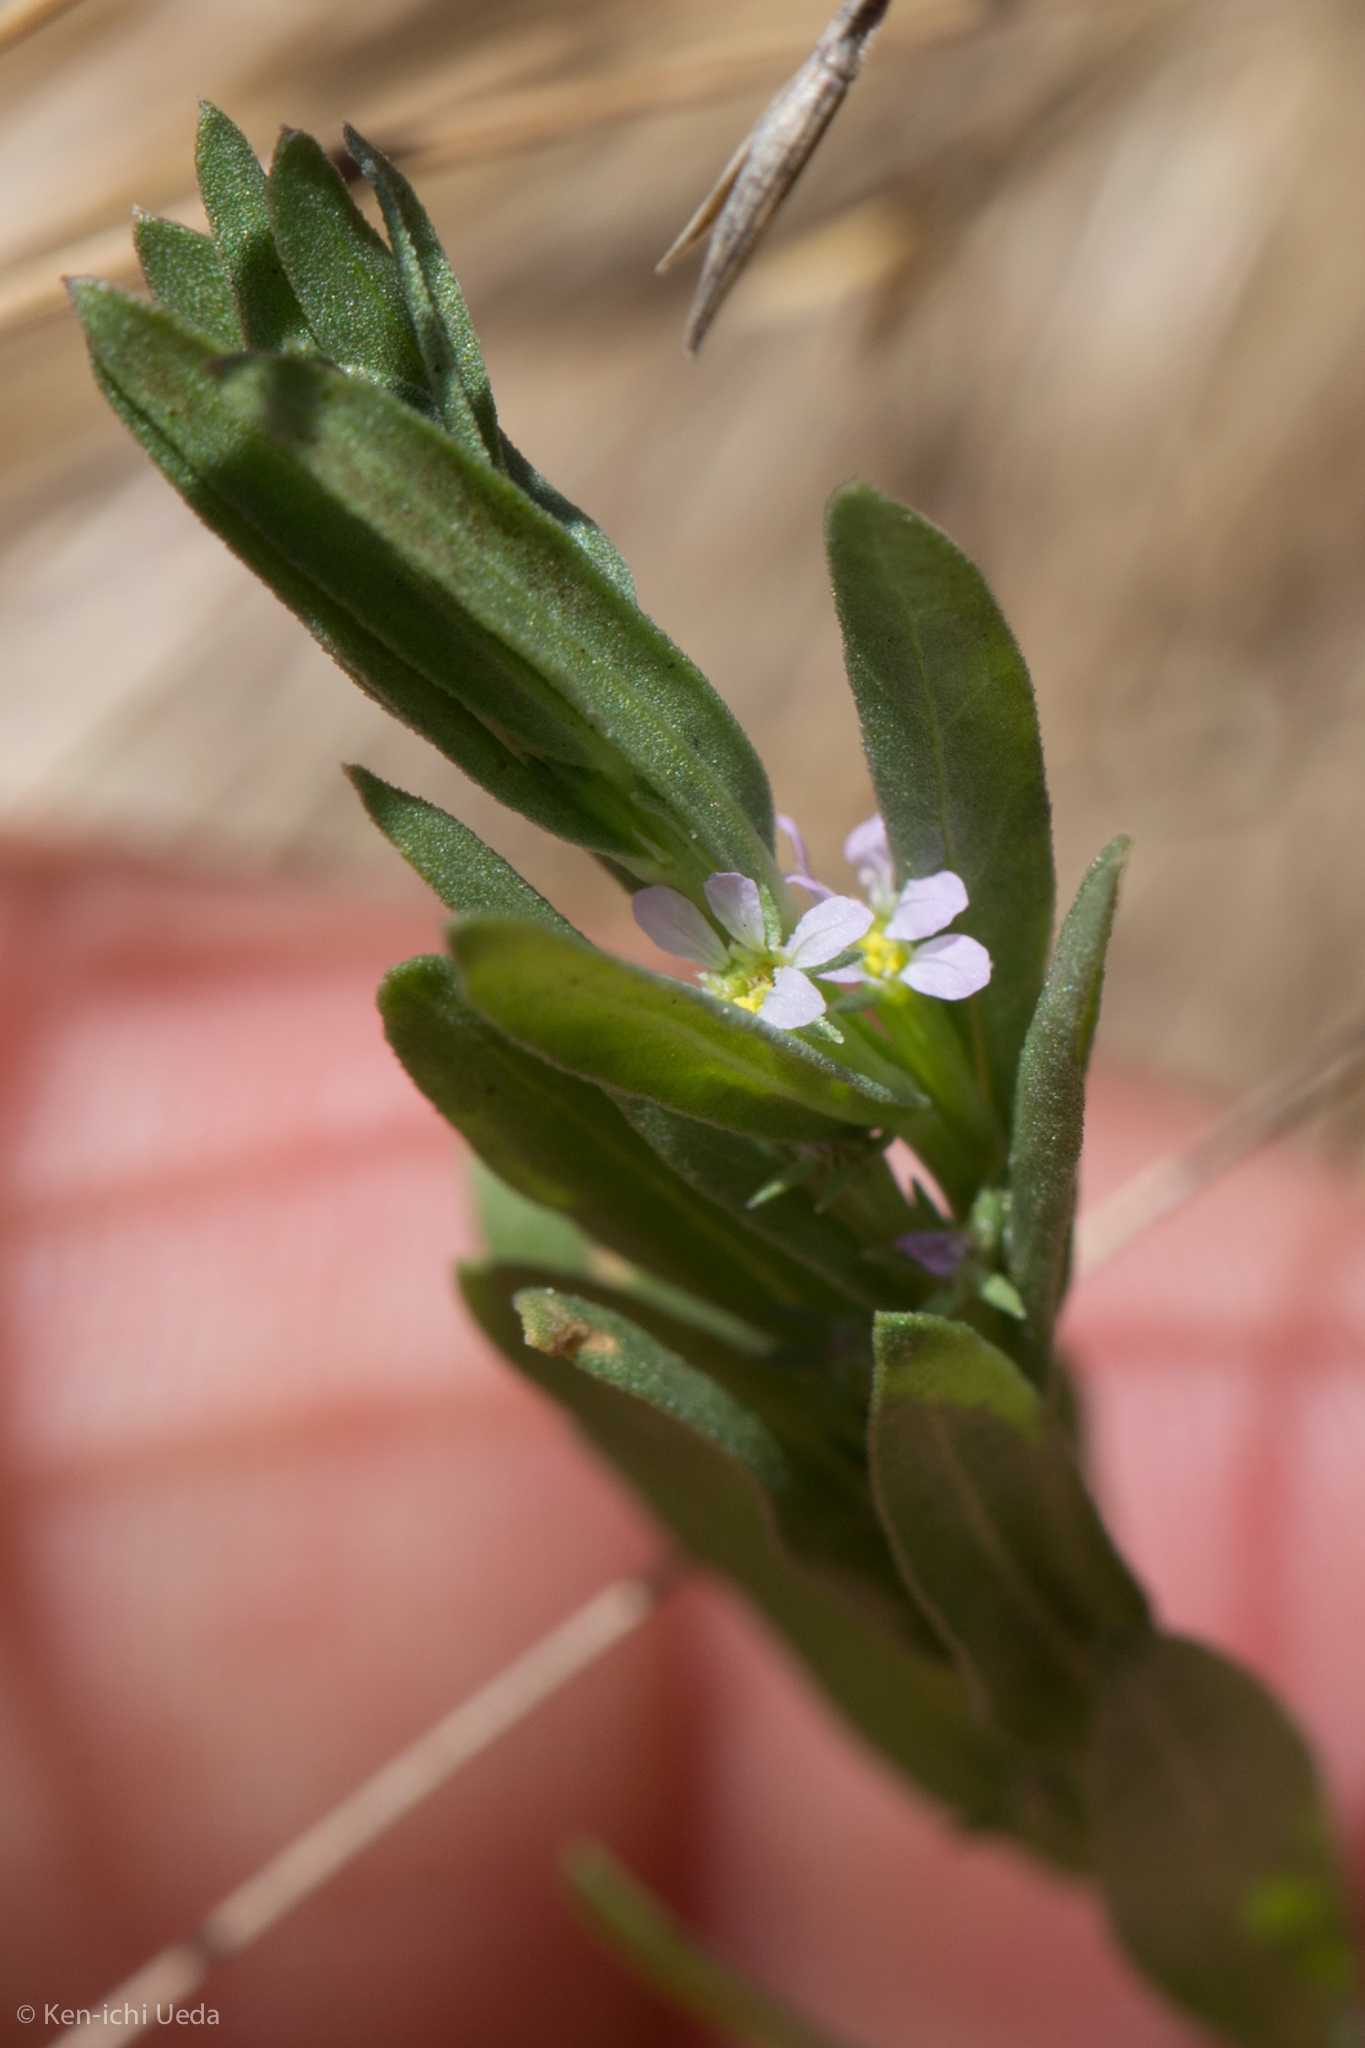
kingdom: Plantae
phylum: Tracheophyta
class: Magnoliopsida
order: Myrtales
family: Lythraceae
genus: Lythrum
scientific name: Lythrum hyssopifolia
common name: Grass-poly
